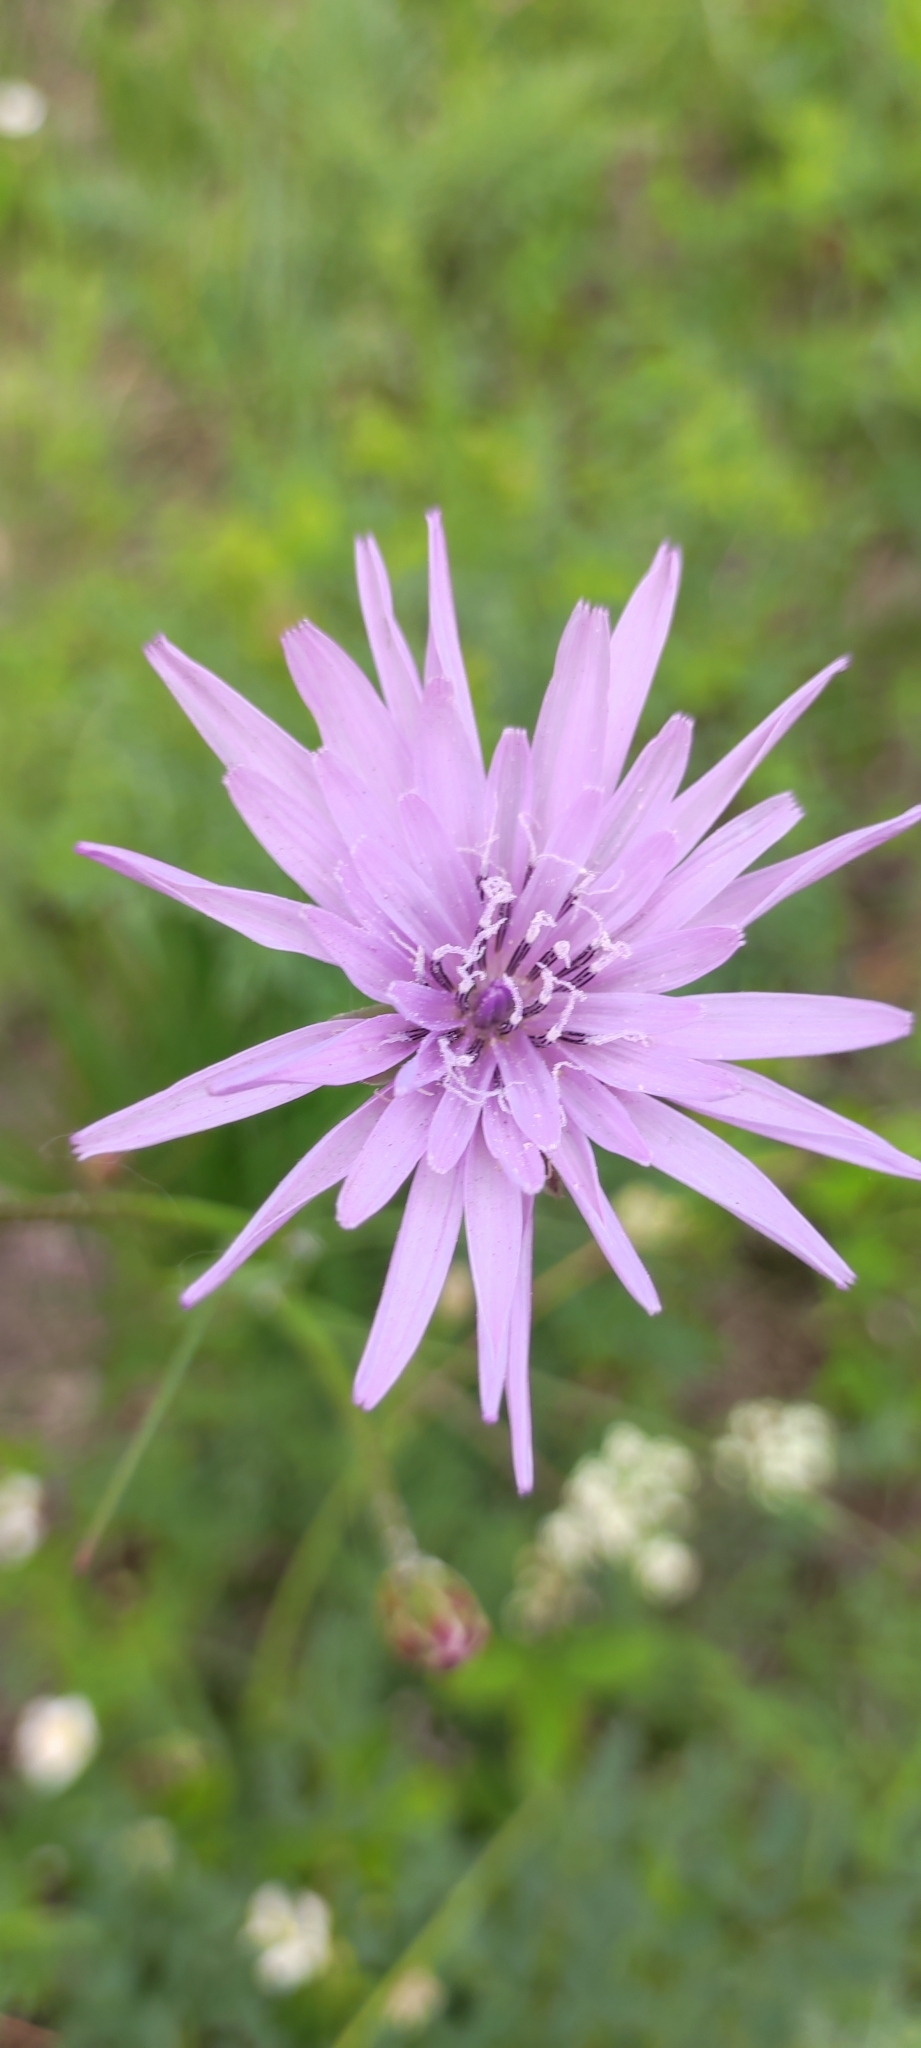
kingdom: Plantae
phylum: Tracheophyta
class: Magnoliopsida
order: Asterales
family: Asteraceae
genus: Scorzonera
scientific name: Scorzonera purpurea
